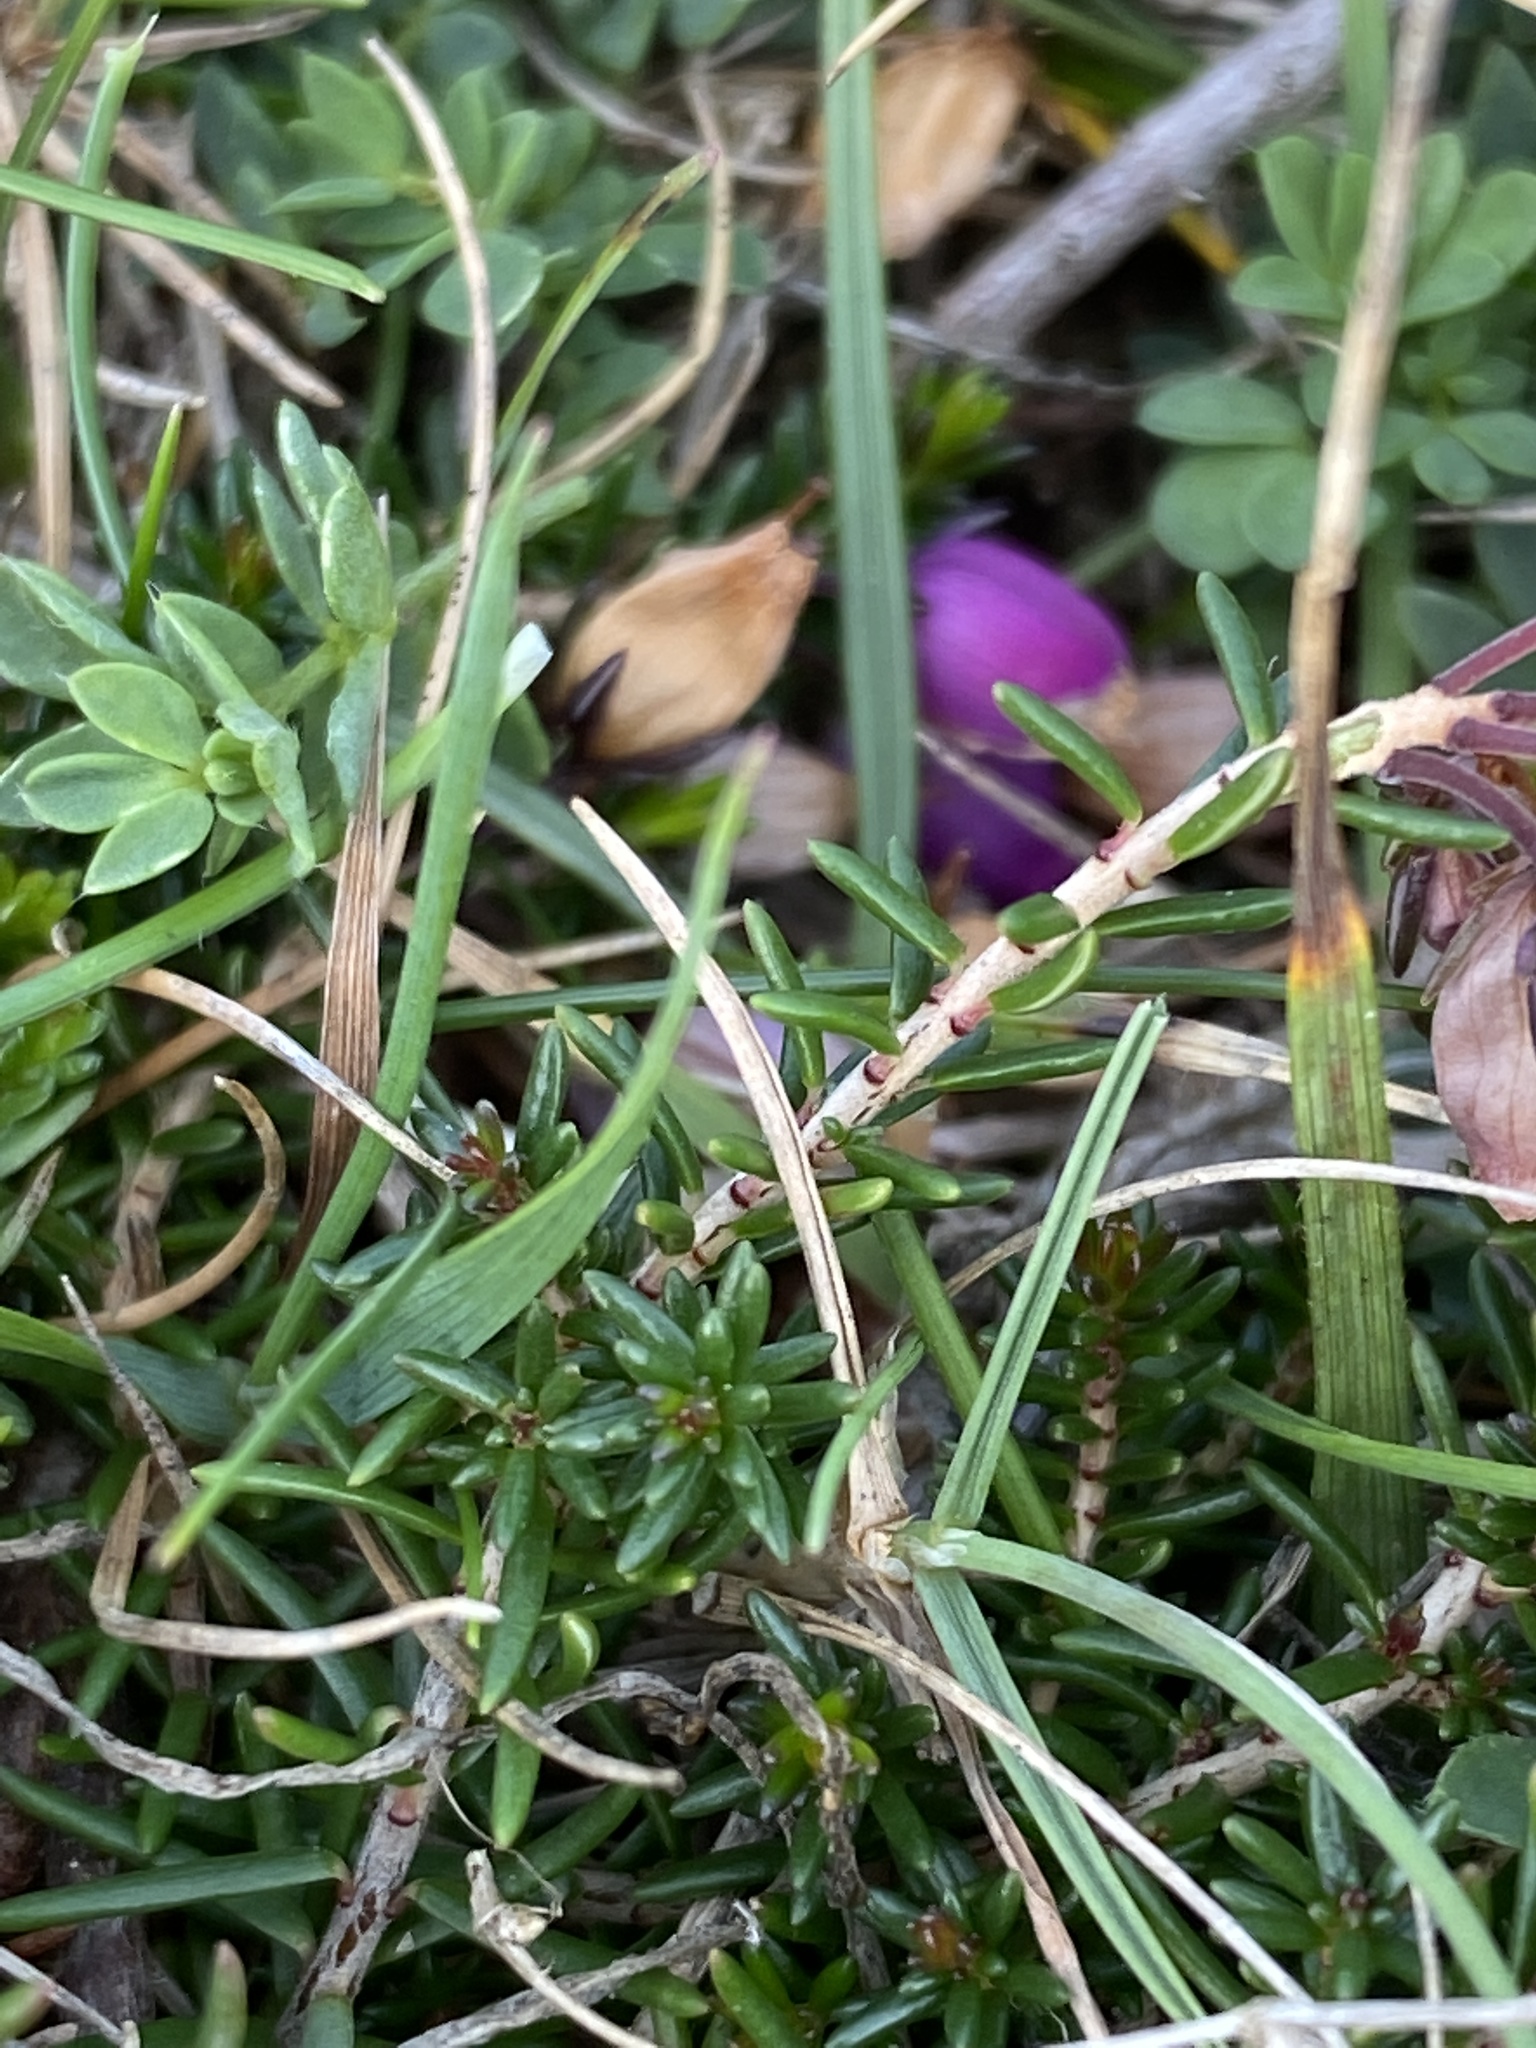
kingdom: Plantae
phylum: Tracheophyta
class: Magnoliopsida
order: Ericales
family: Ericaceae
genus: Erica
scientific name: Erica cinerea
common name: Bell heather
